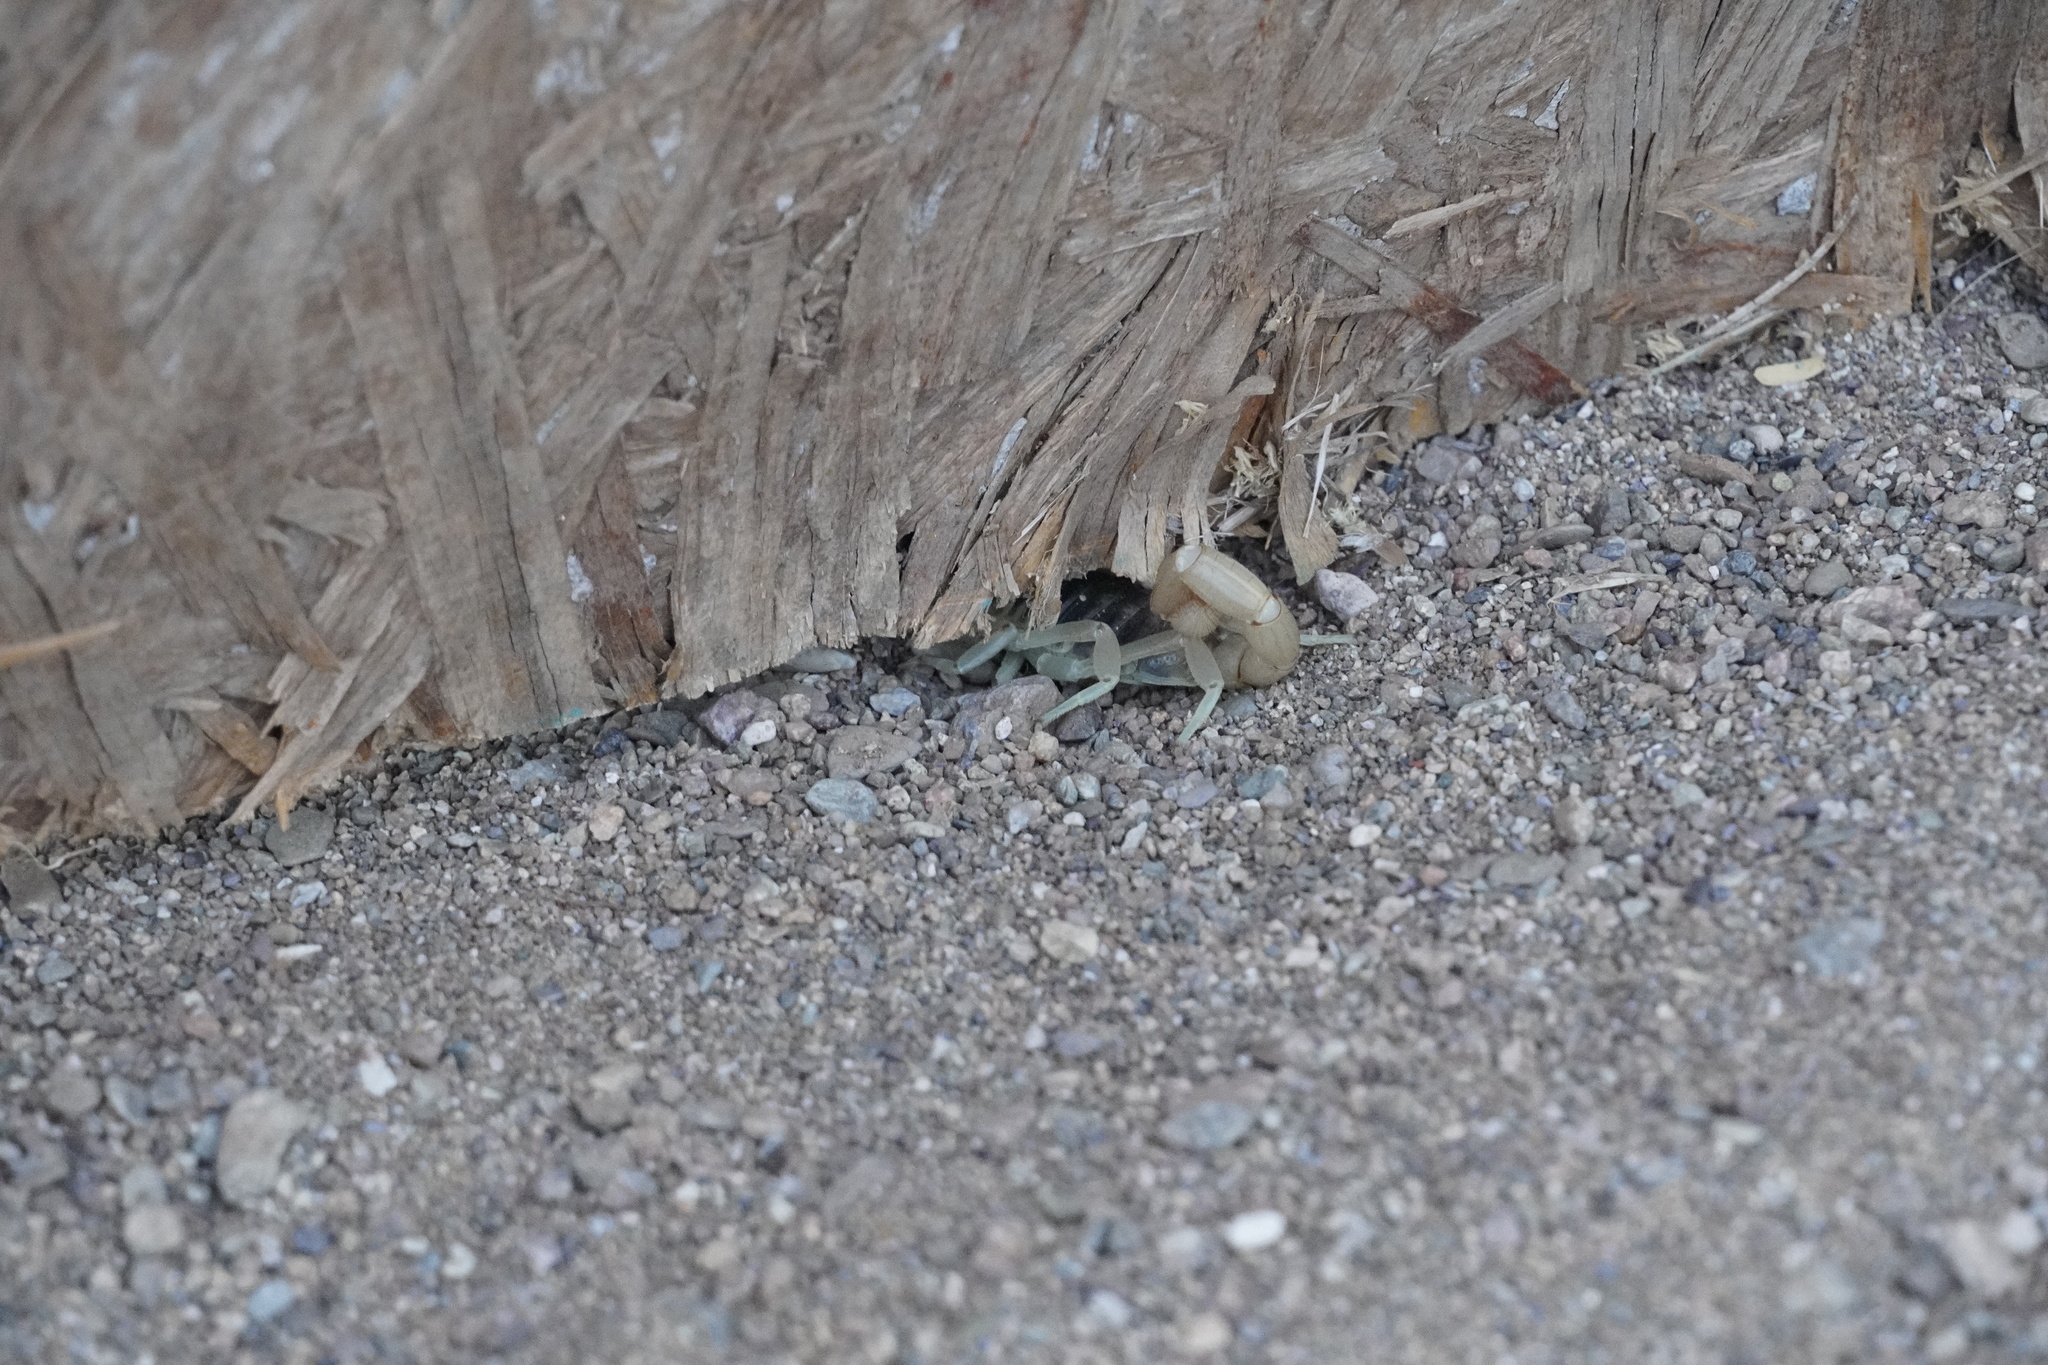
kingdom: Animalia
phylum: Arthropoda
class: Arachnida
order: Scorpiones
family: Hadruridae
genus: Hadrurus
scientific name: Hadrurus arizonensis
